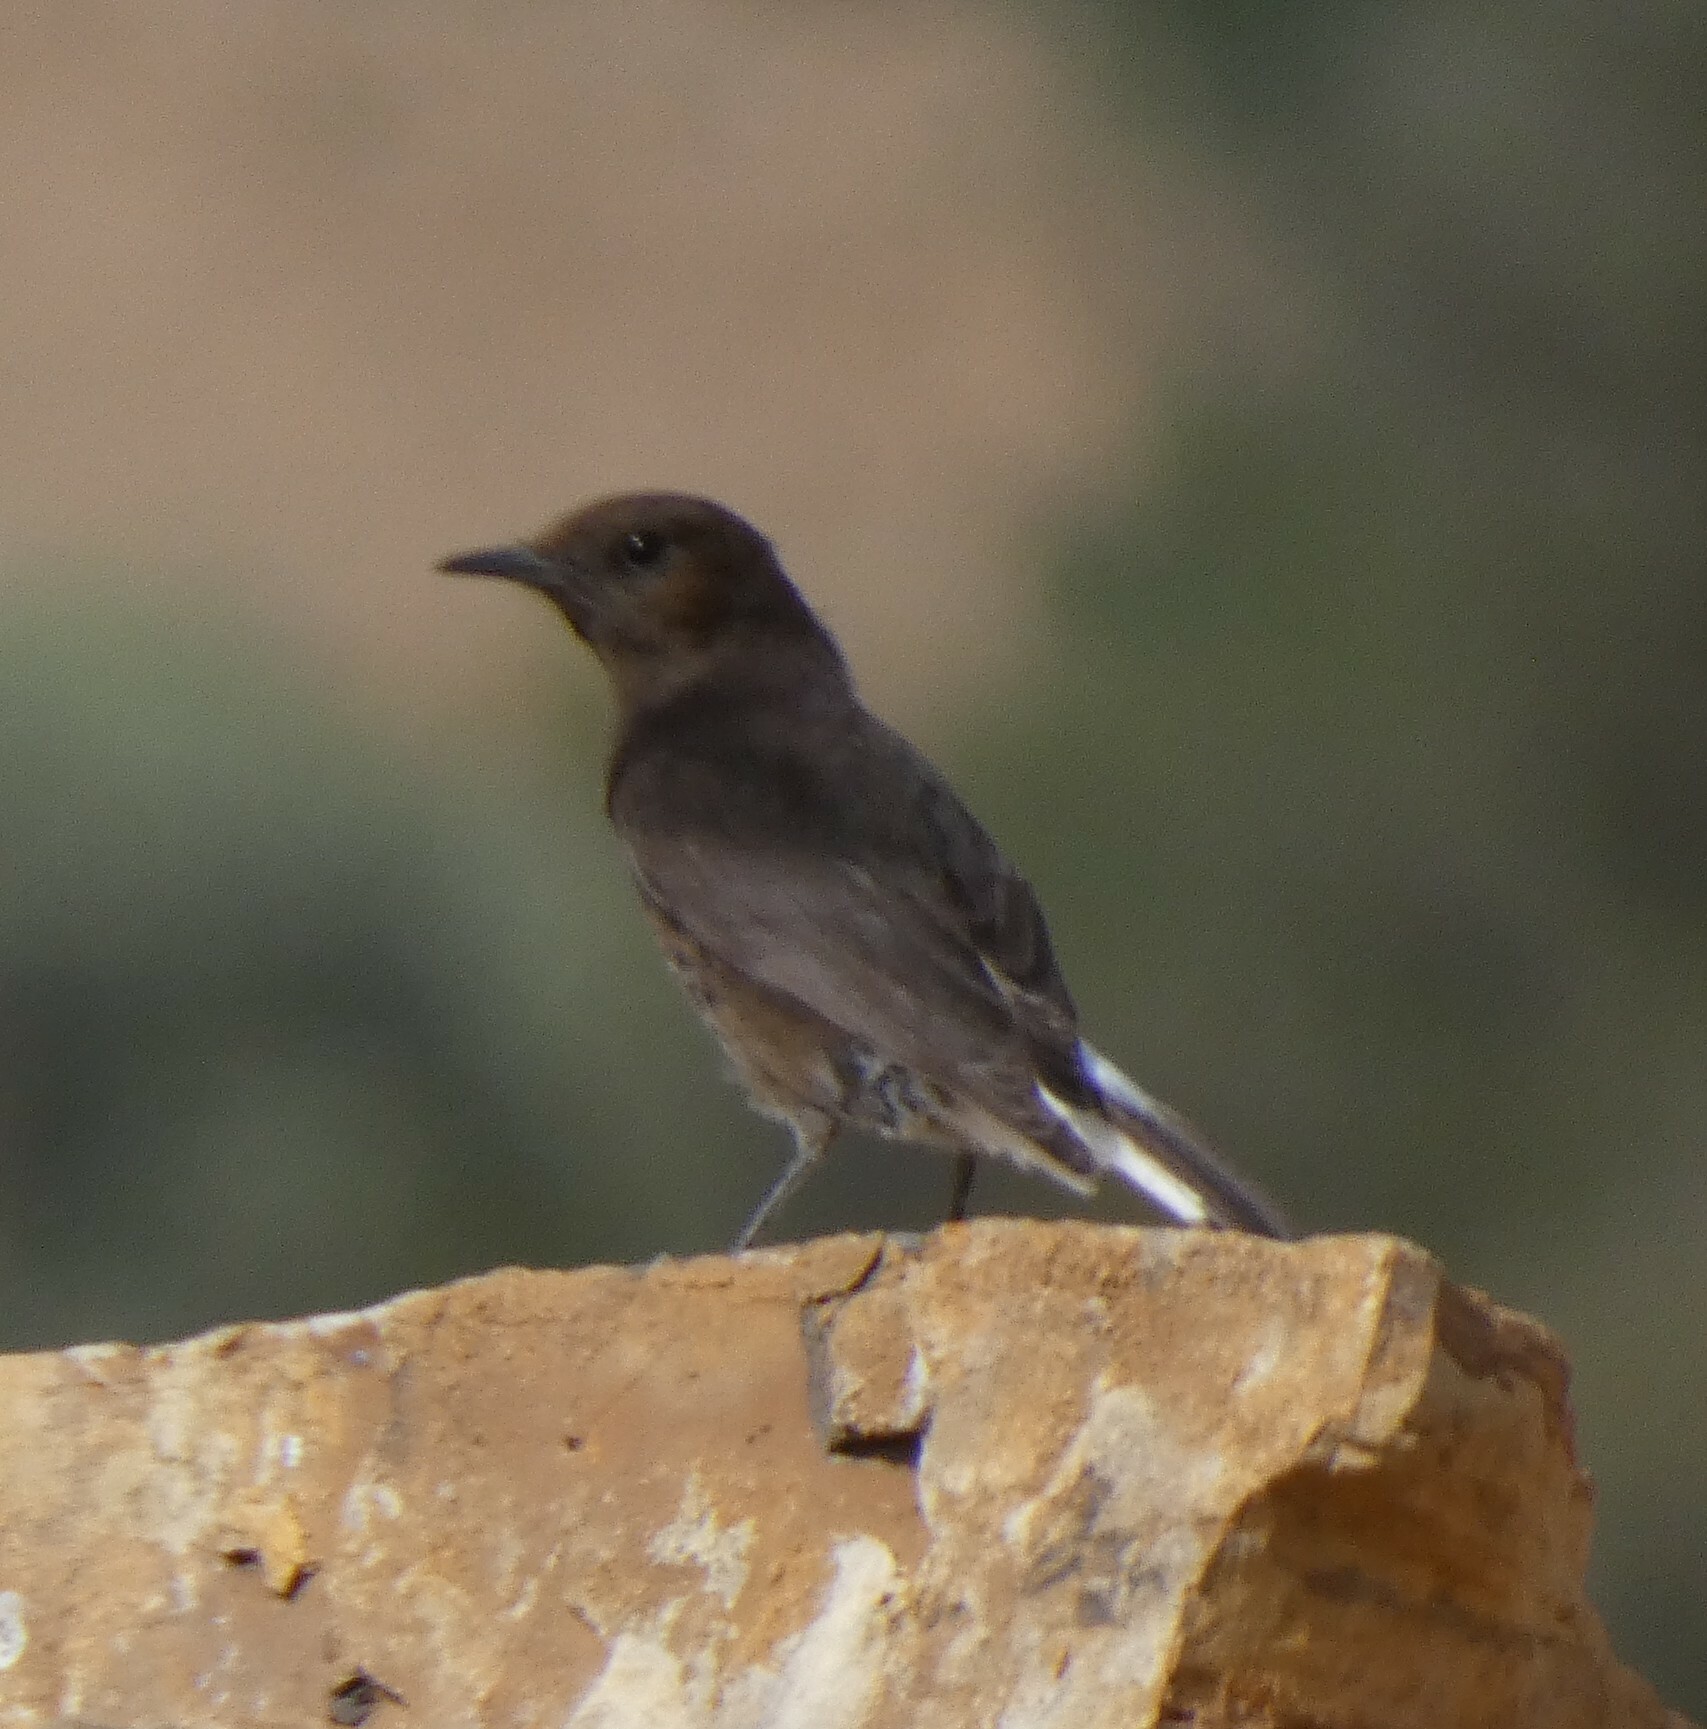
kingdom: Animalia
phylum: Chordata
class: Aves
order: Passeriformes
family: Muscicapidae
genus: Oenanthe
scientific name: Oenanthe leucura
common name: Black wheatear
